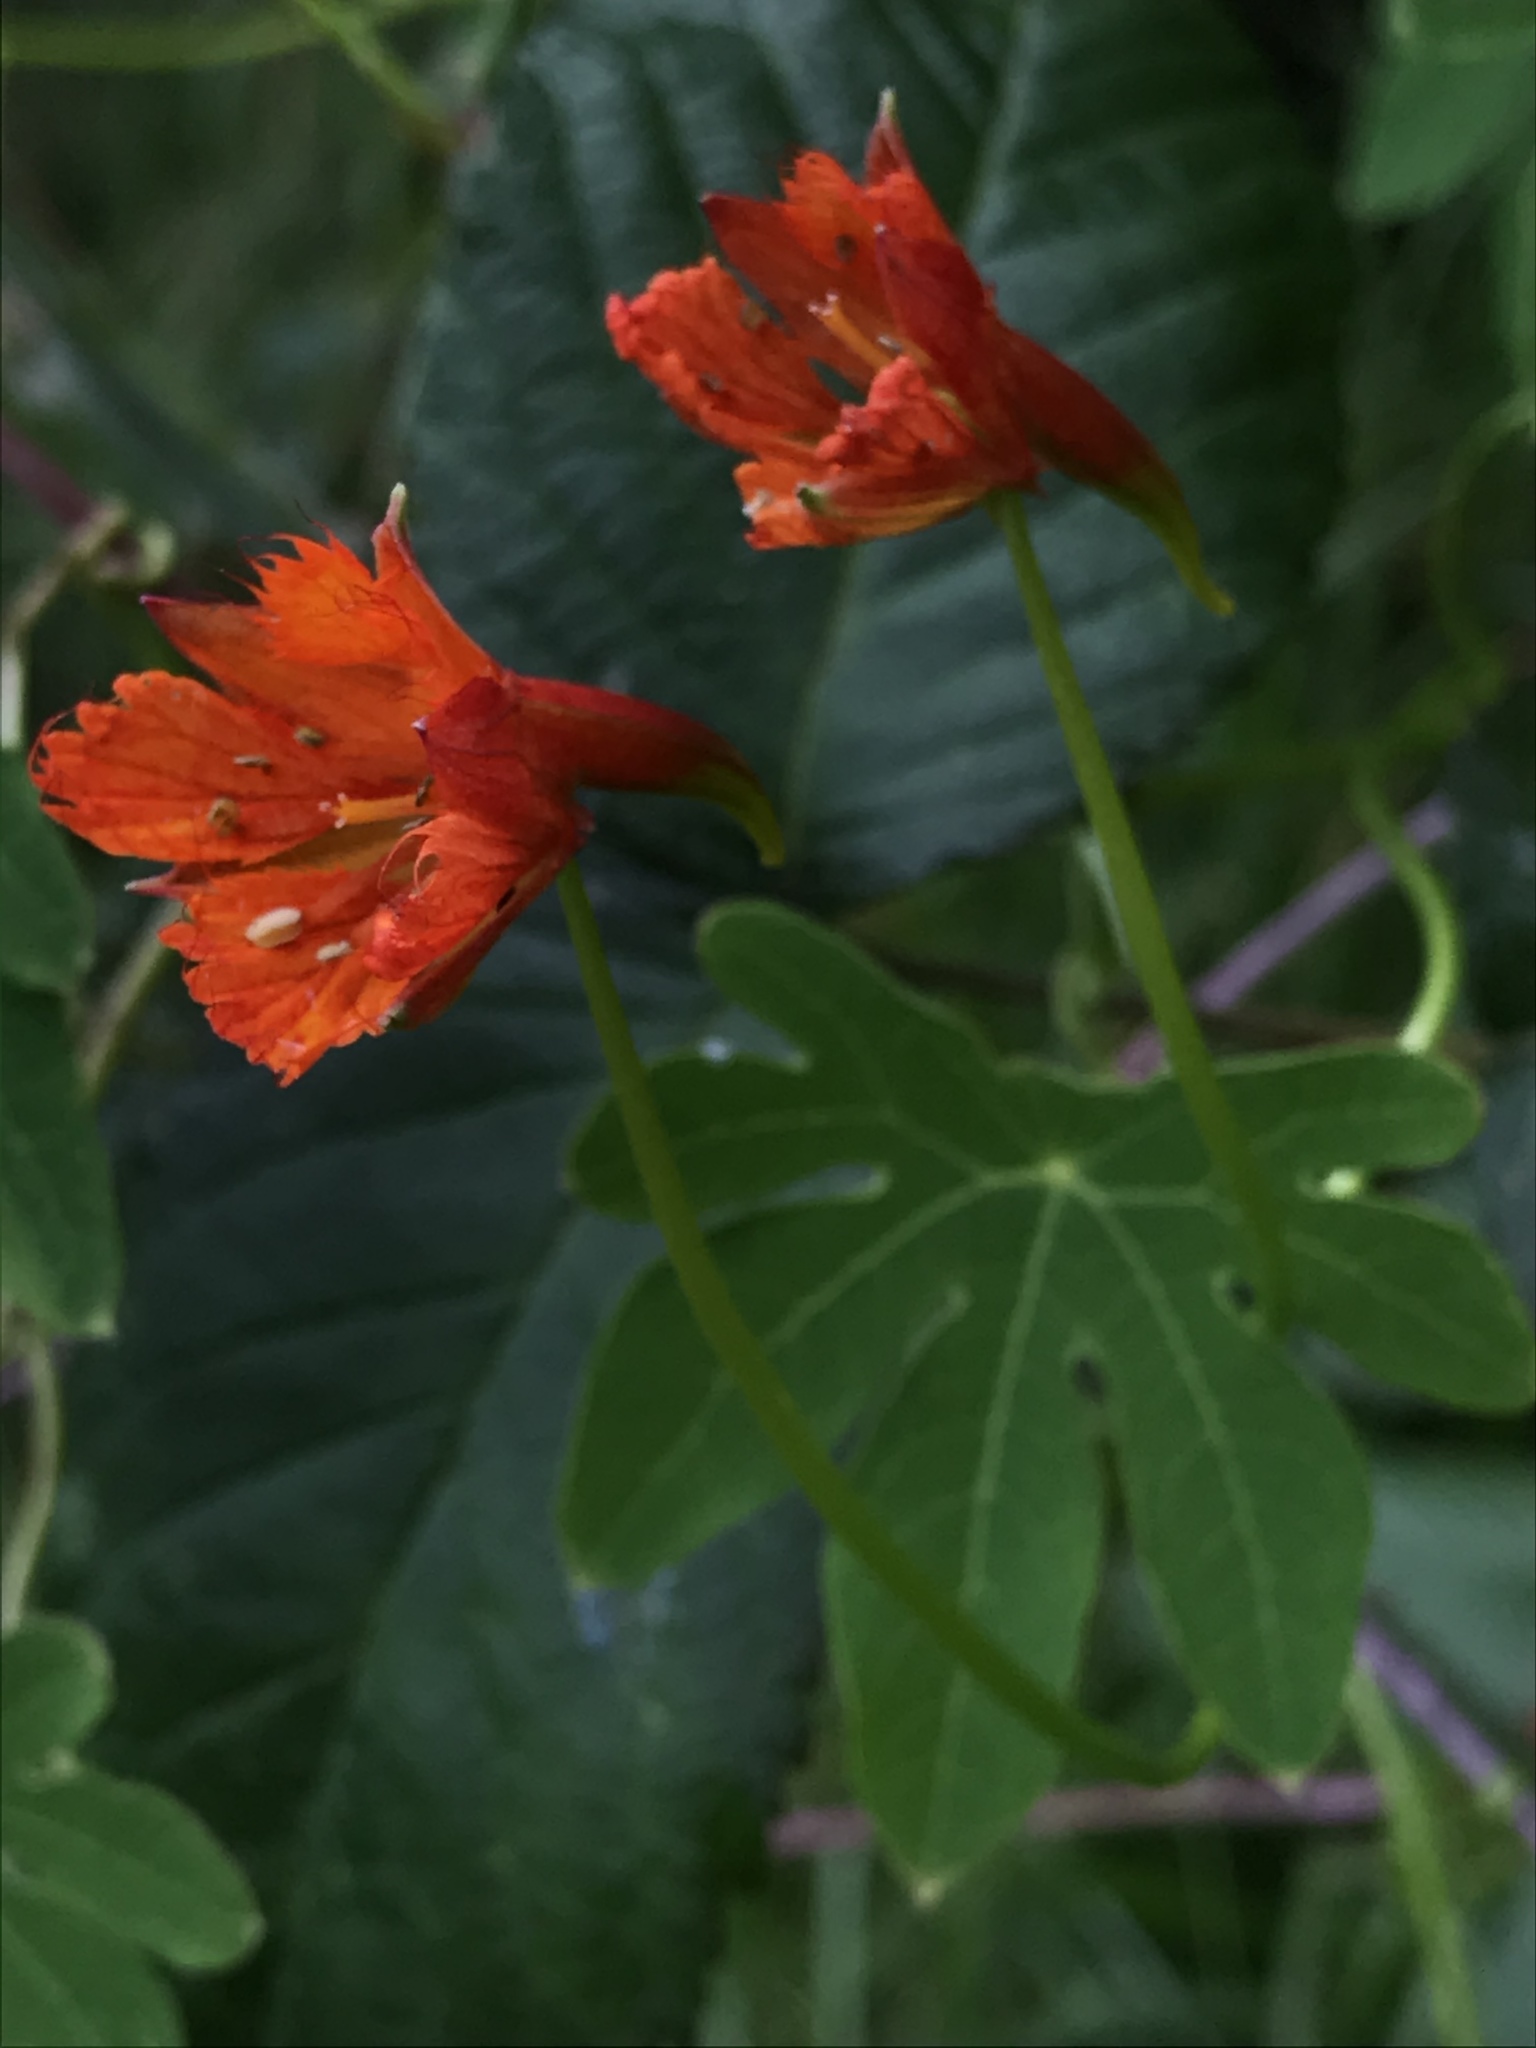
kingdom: Plantae
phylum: Tracheophyta
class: Magnoliopsida
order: Brassicales
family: Tropaeolaceae
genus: Tropaeolum
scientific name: Tropaeolum smithii
